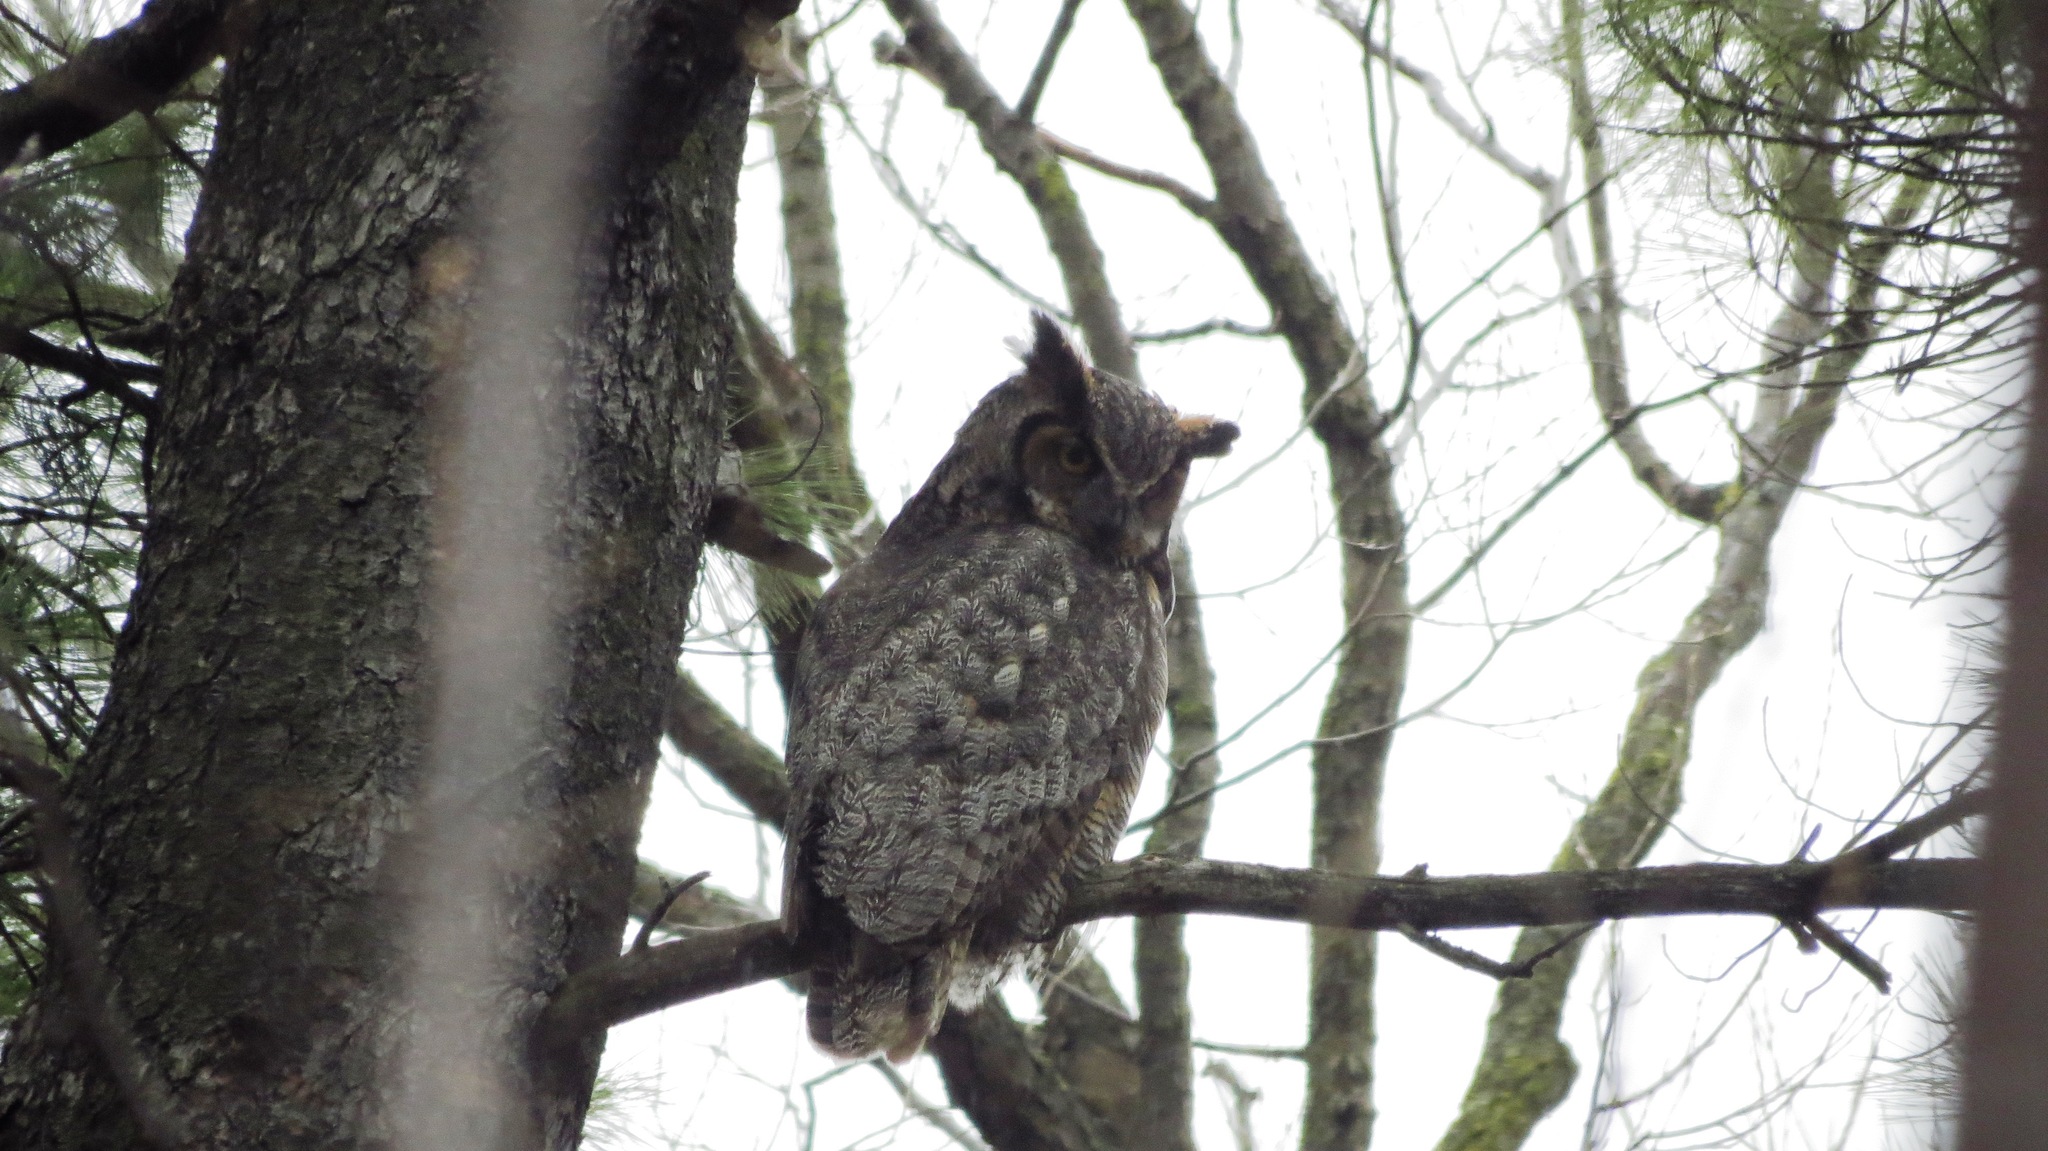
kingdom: Animalia
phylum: Chordata
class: Aves
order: Strigiformes
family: Strigidae
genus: Bubo
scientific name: Bubo virginianus
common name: Great horned owl
